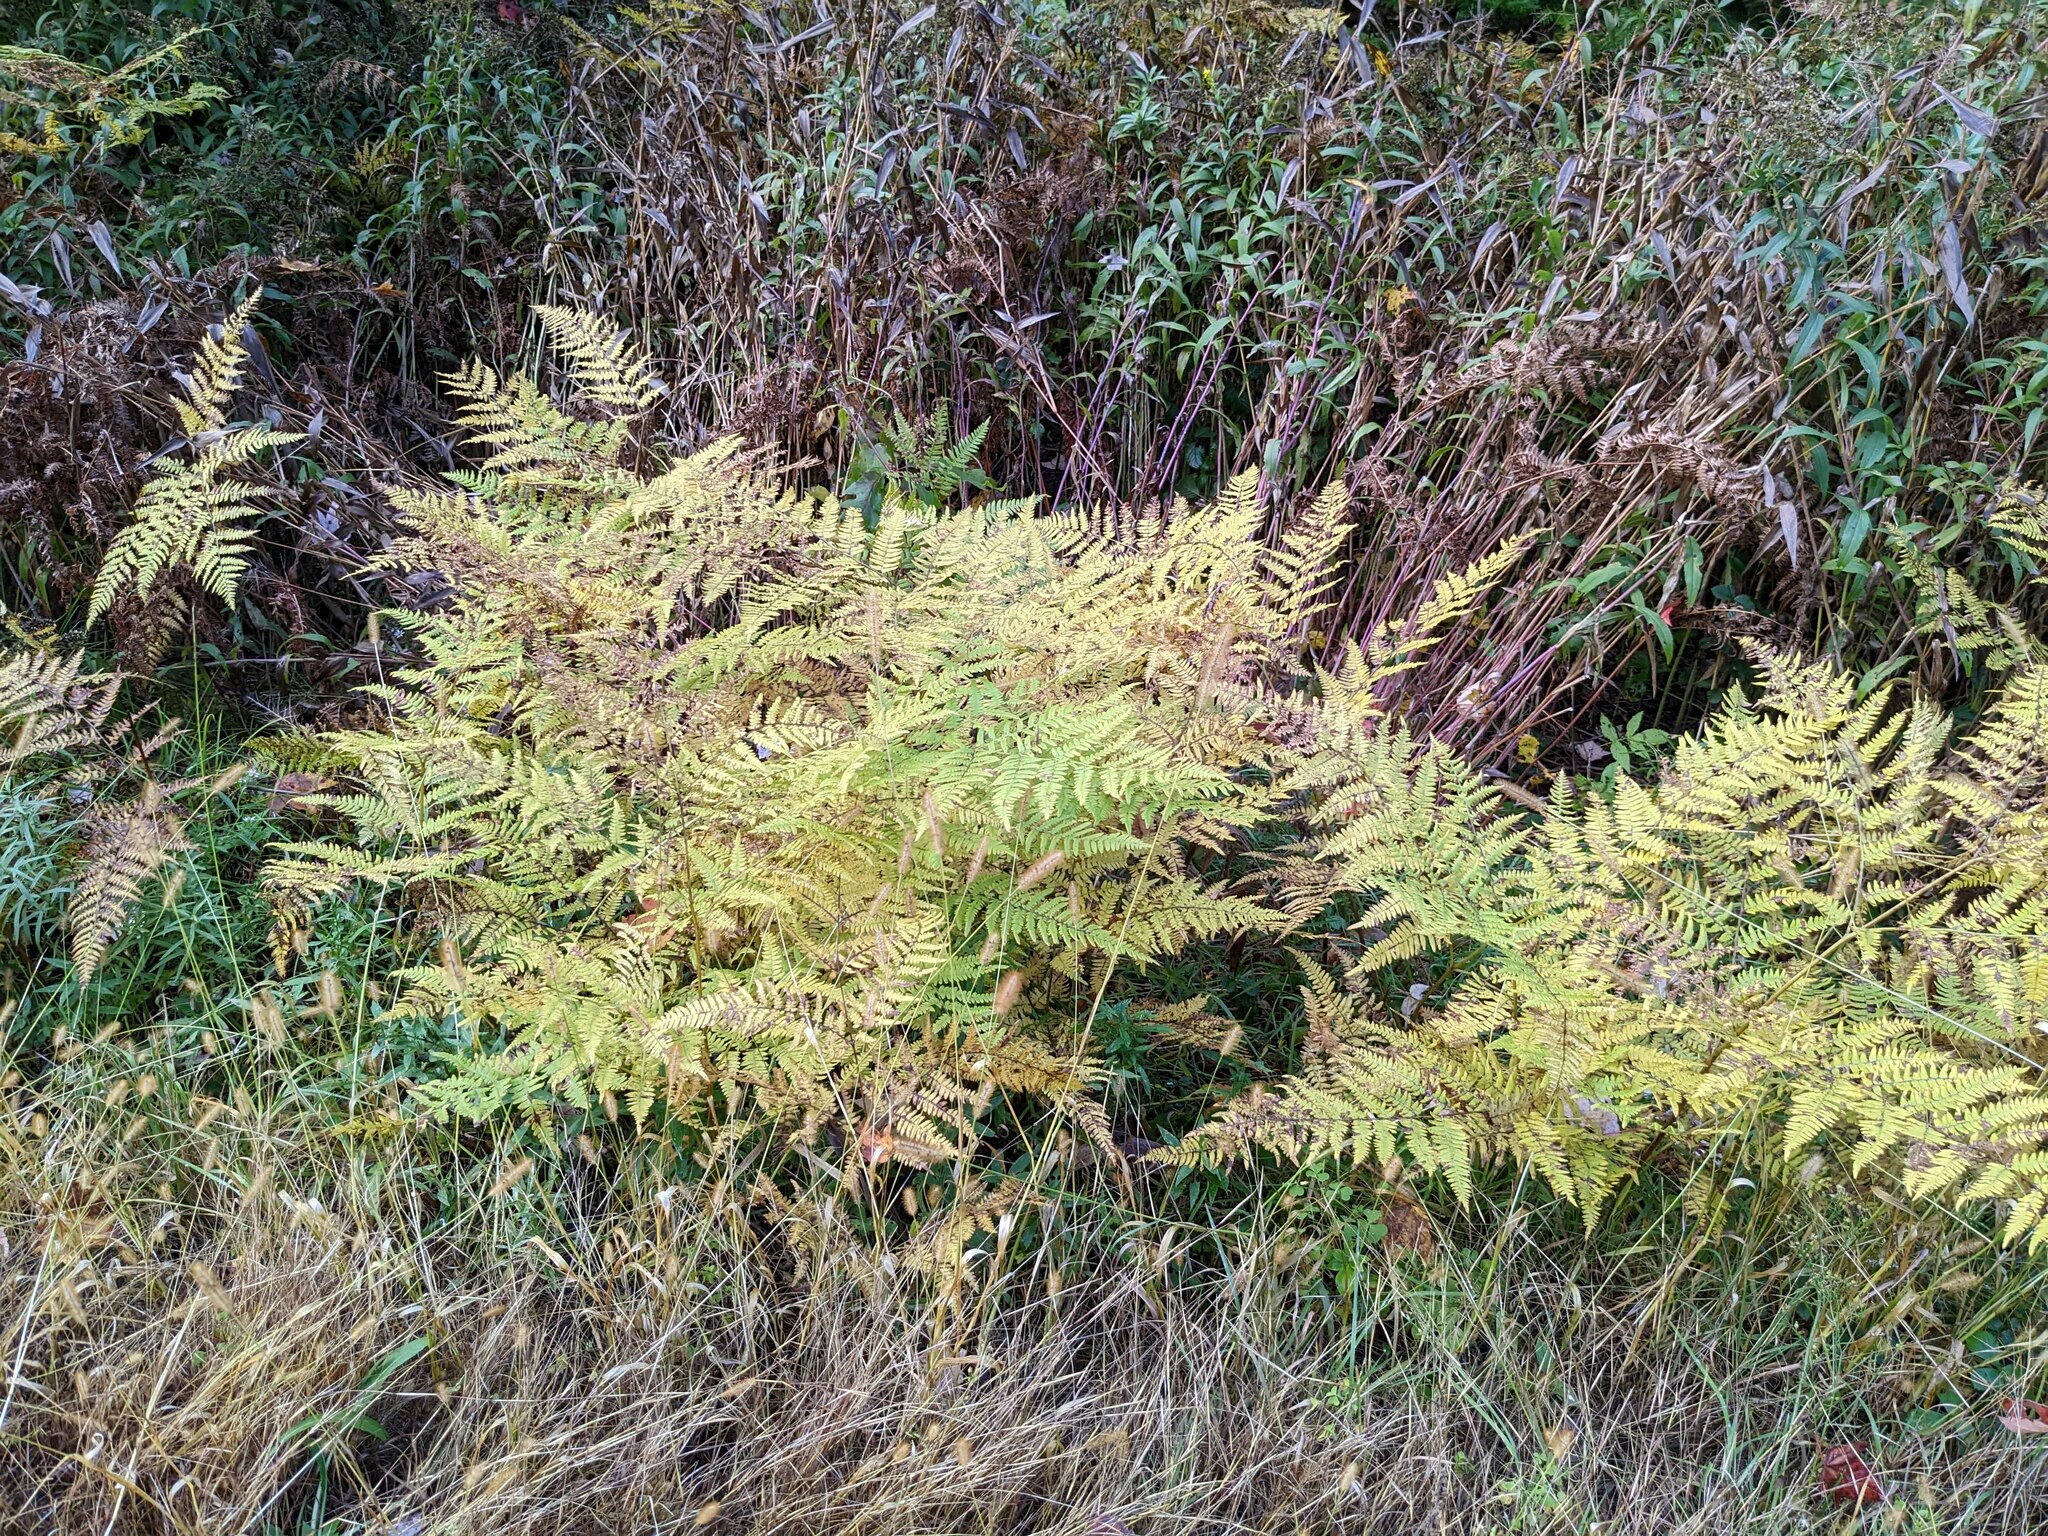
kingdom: Plantae
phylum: Tracheophyta
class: Polypodiopsida
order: Polypodiales
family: Dennstaedtiaceae
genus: Pteridium
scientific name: Pteridium aquilinum
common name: Bracken
